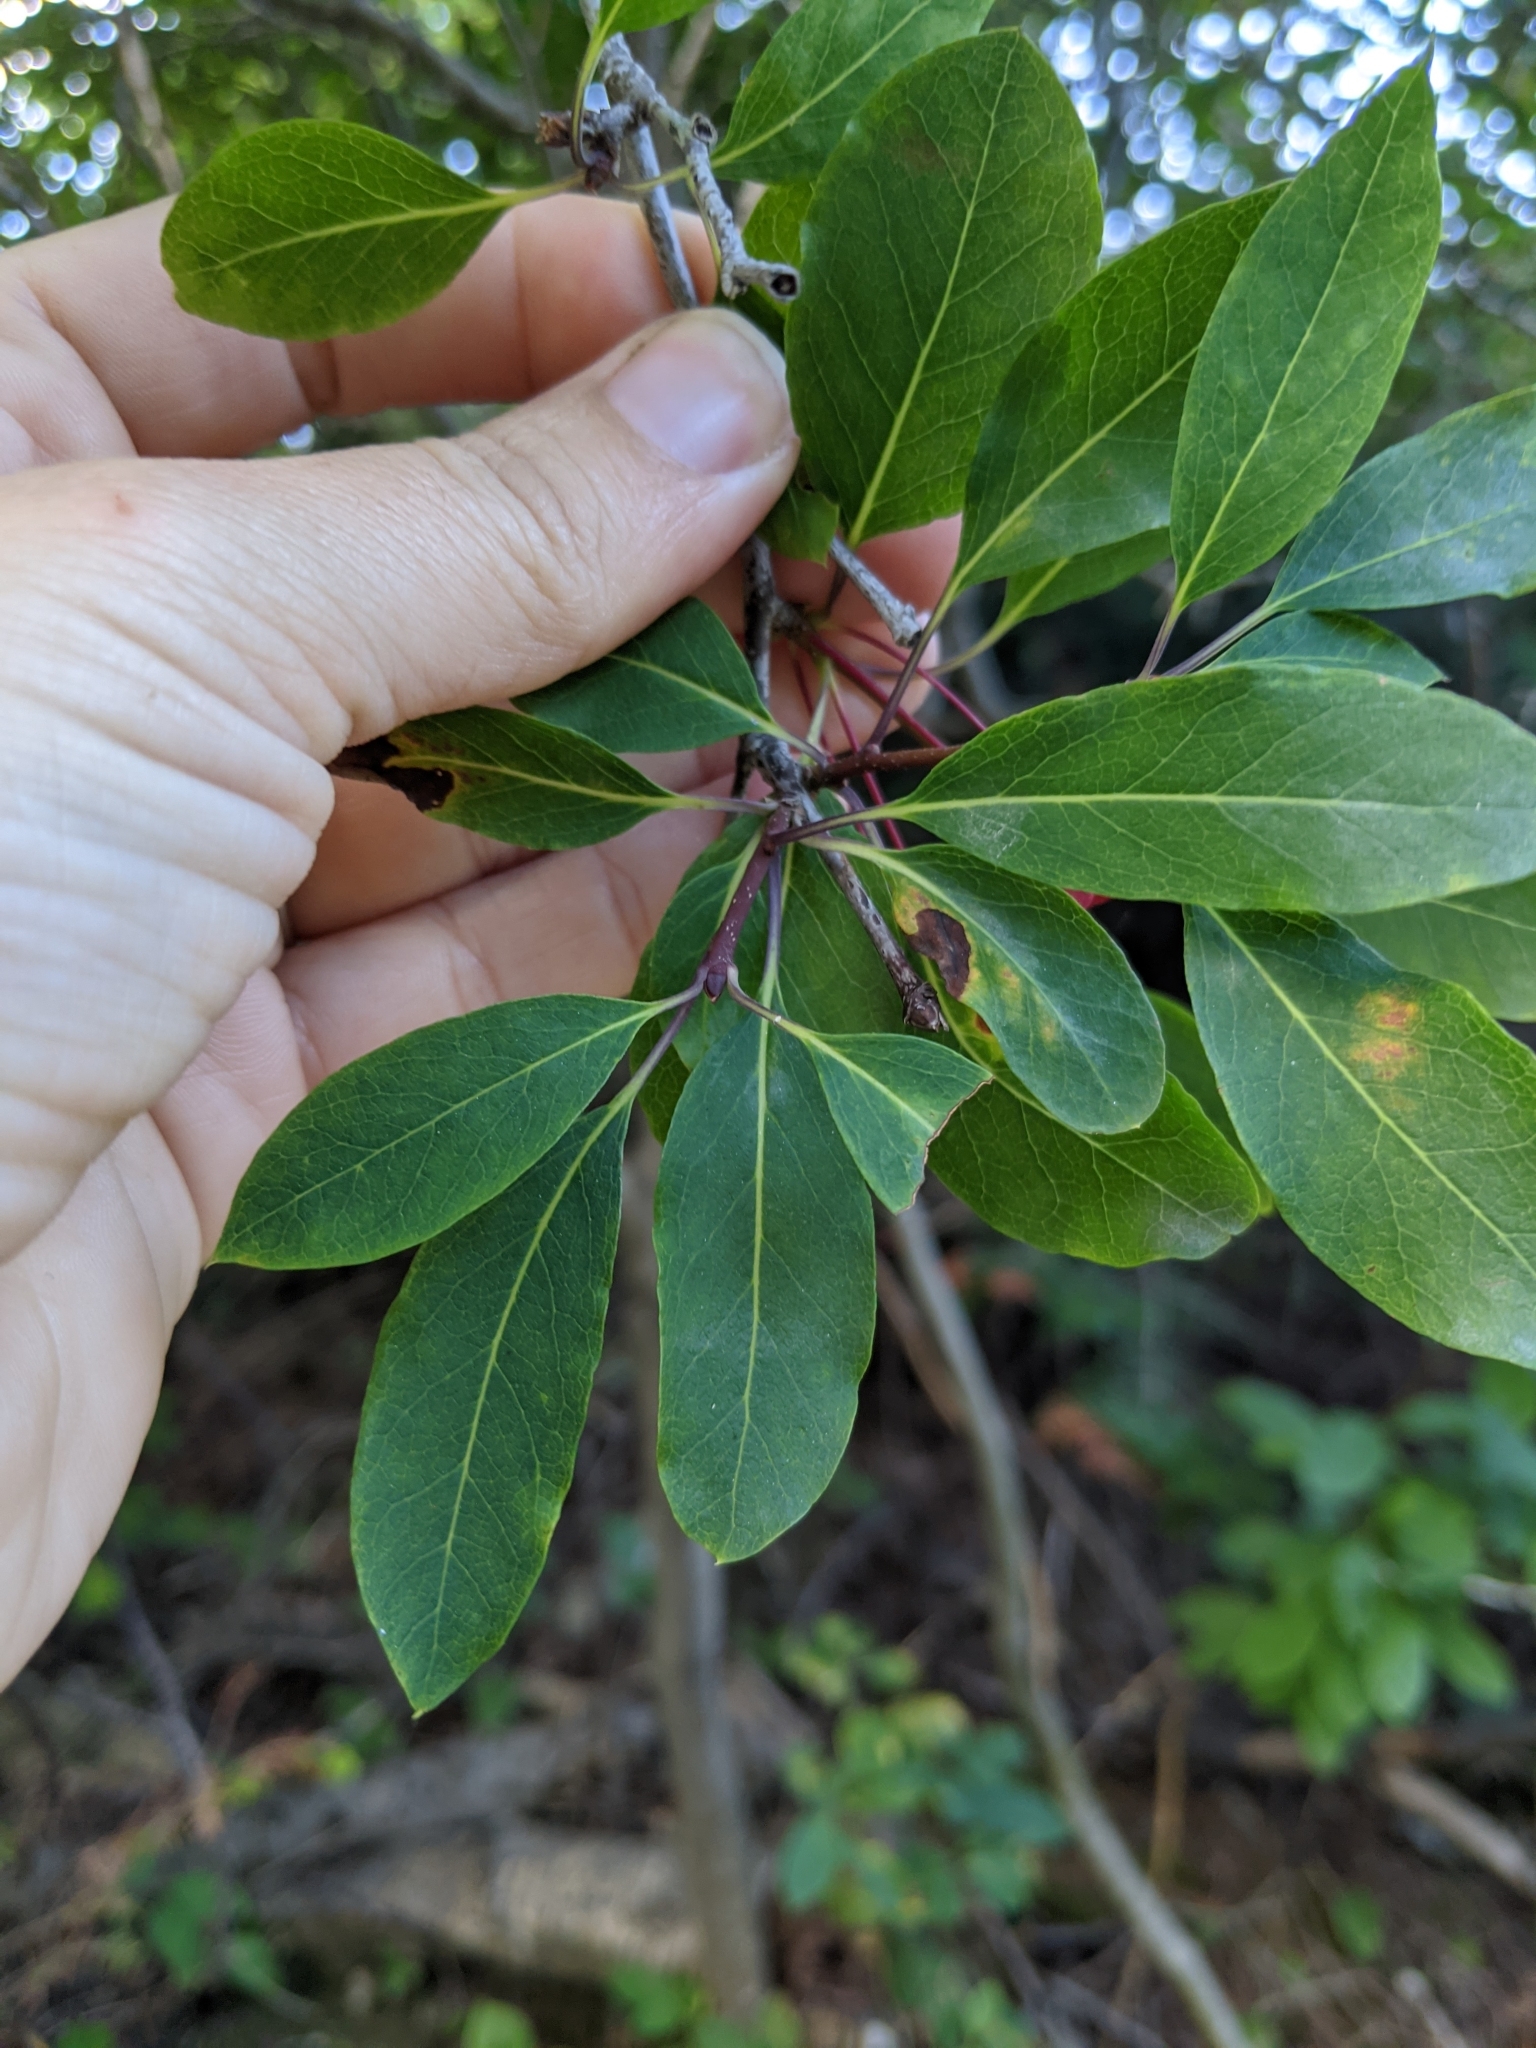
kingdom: Plantae
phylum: Tracheophyta
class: Magnoliopsida
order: Aquifoliales
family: Aquifoliaceae
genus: Ilex
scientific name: Ilex mucronata
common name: Catberry
